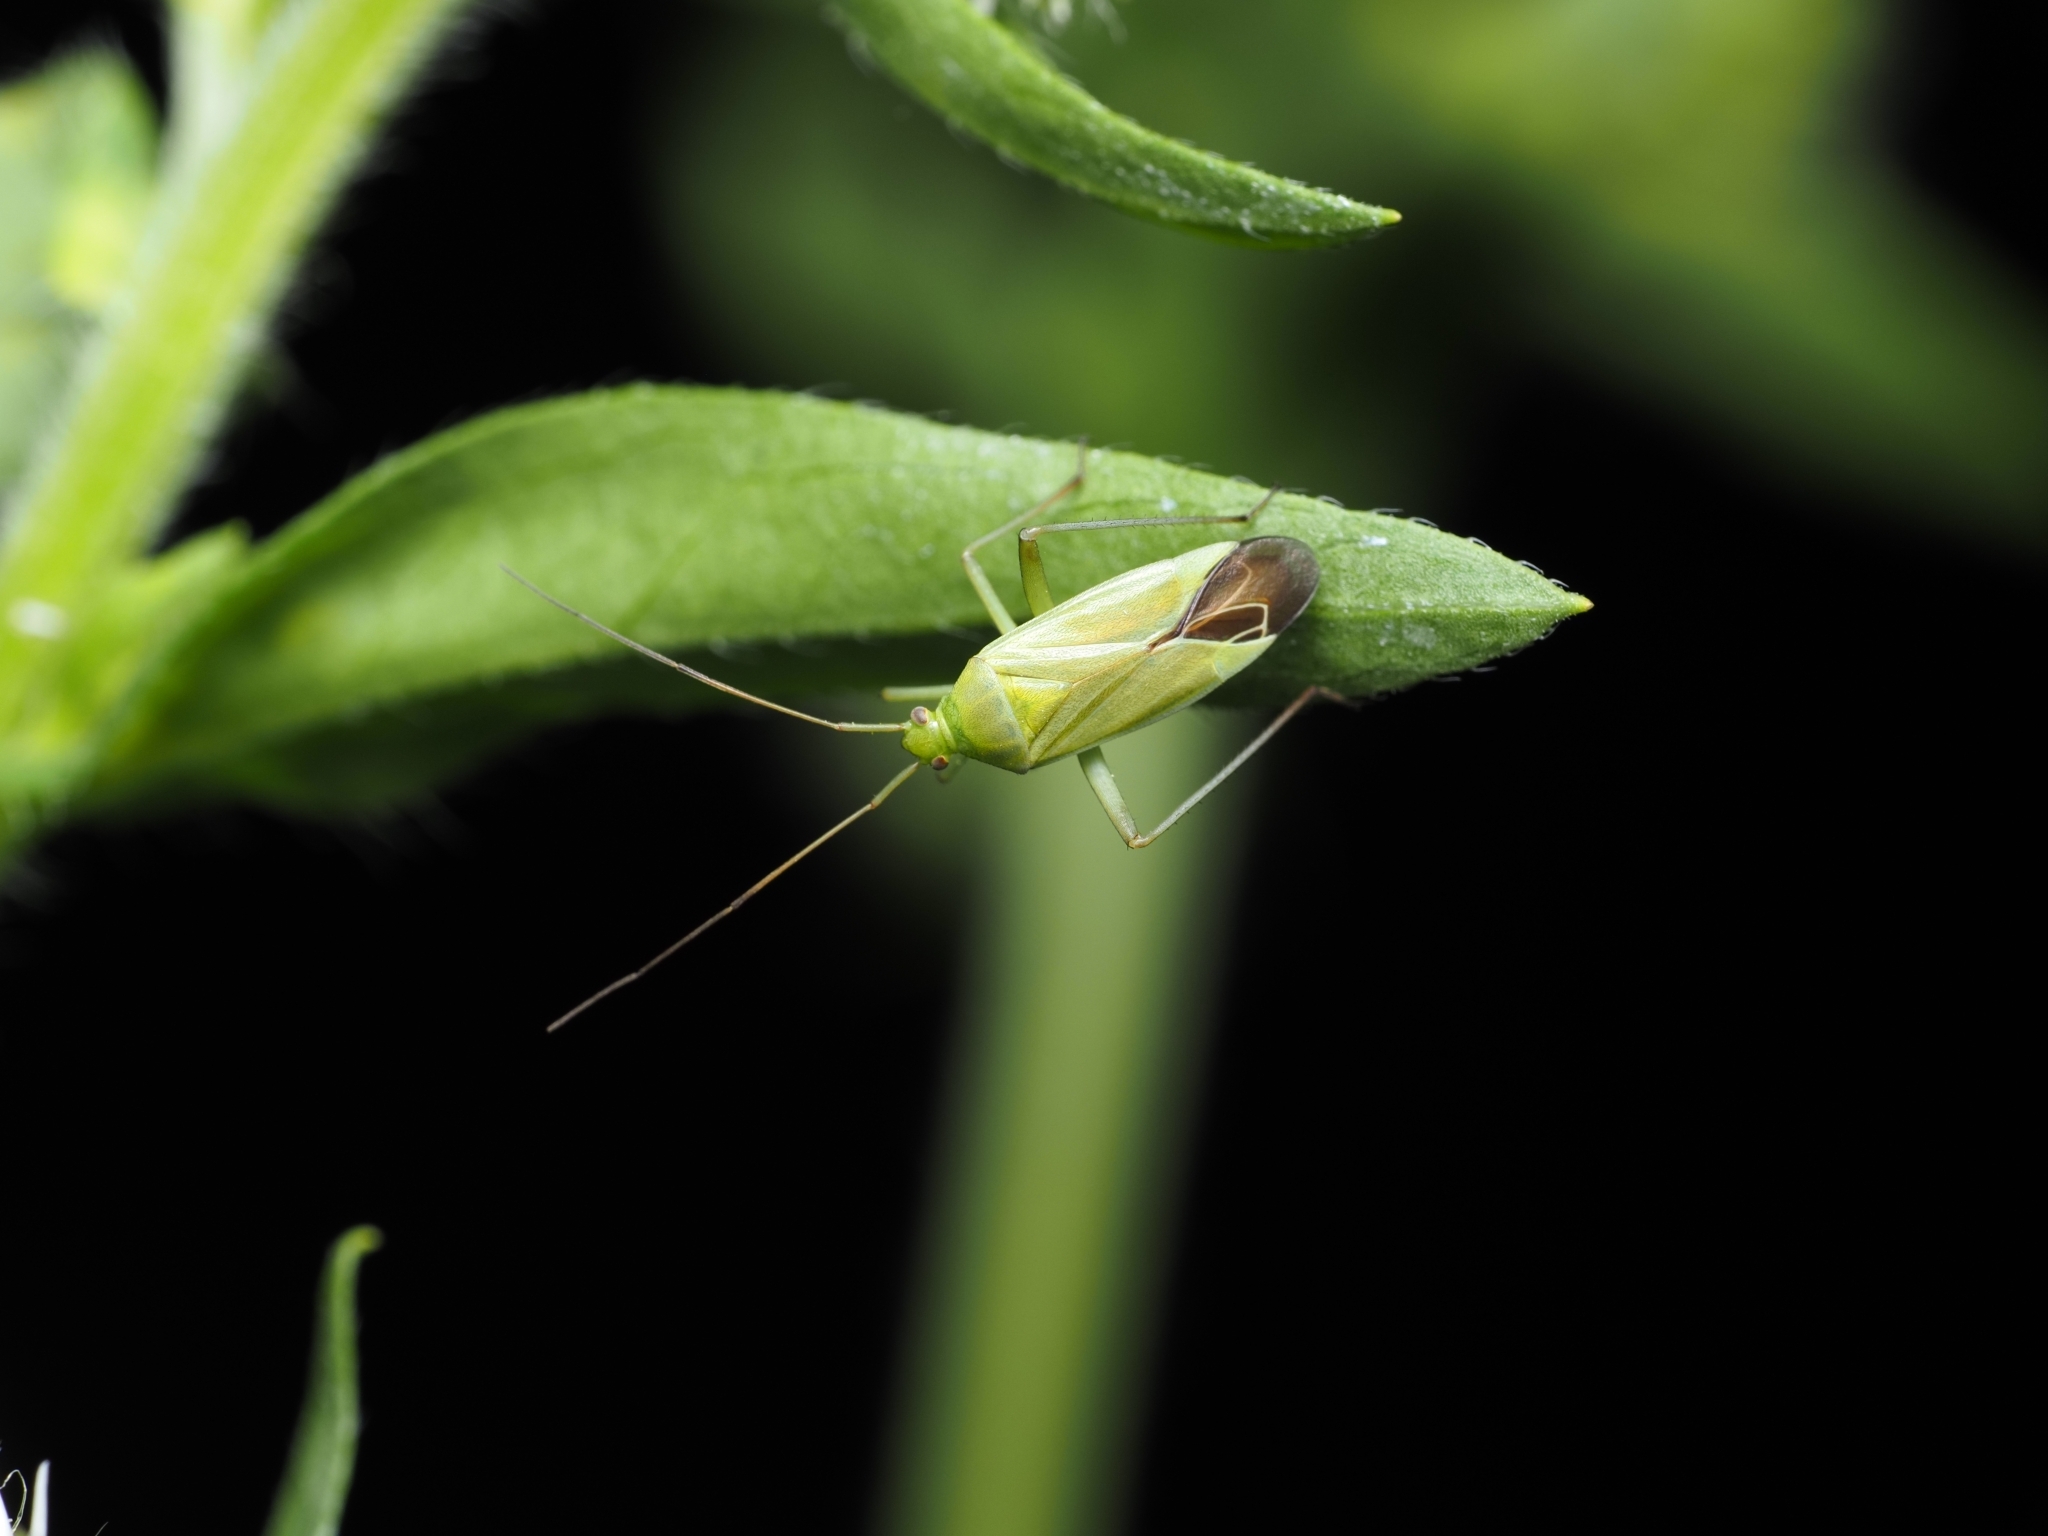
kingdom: Animalia
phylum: Arthropoda
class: Insecta
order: Hemiptera
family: Miridae
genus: Closterotomus
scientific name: Closterotomus norvegicus
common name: Plant bug
